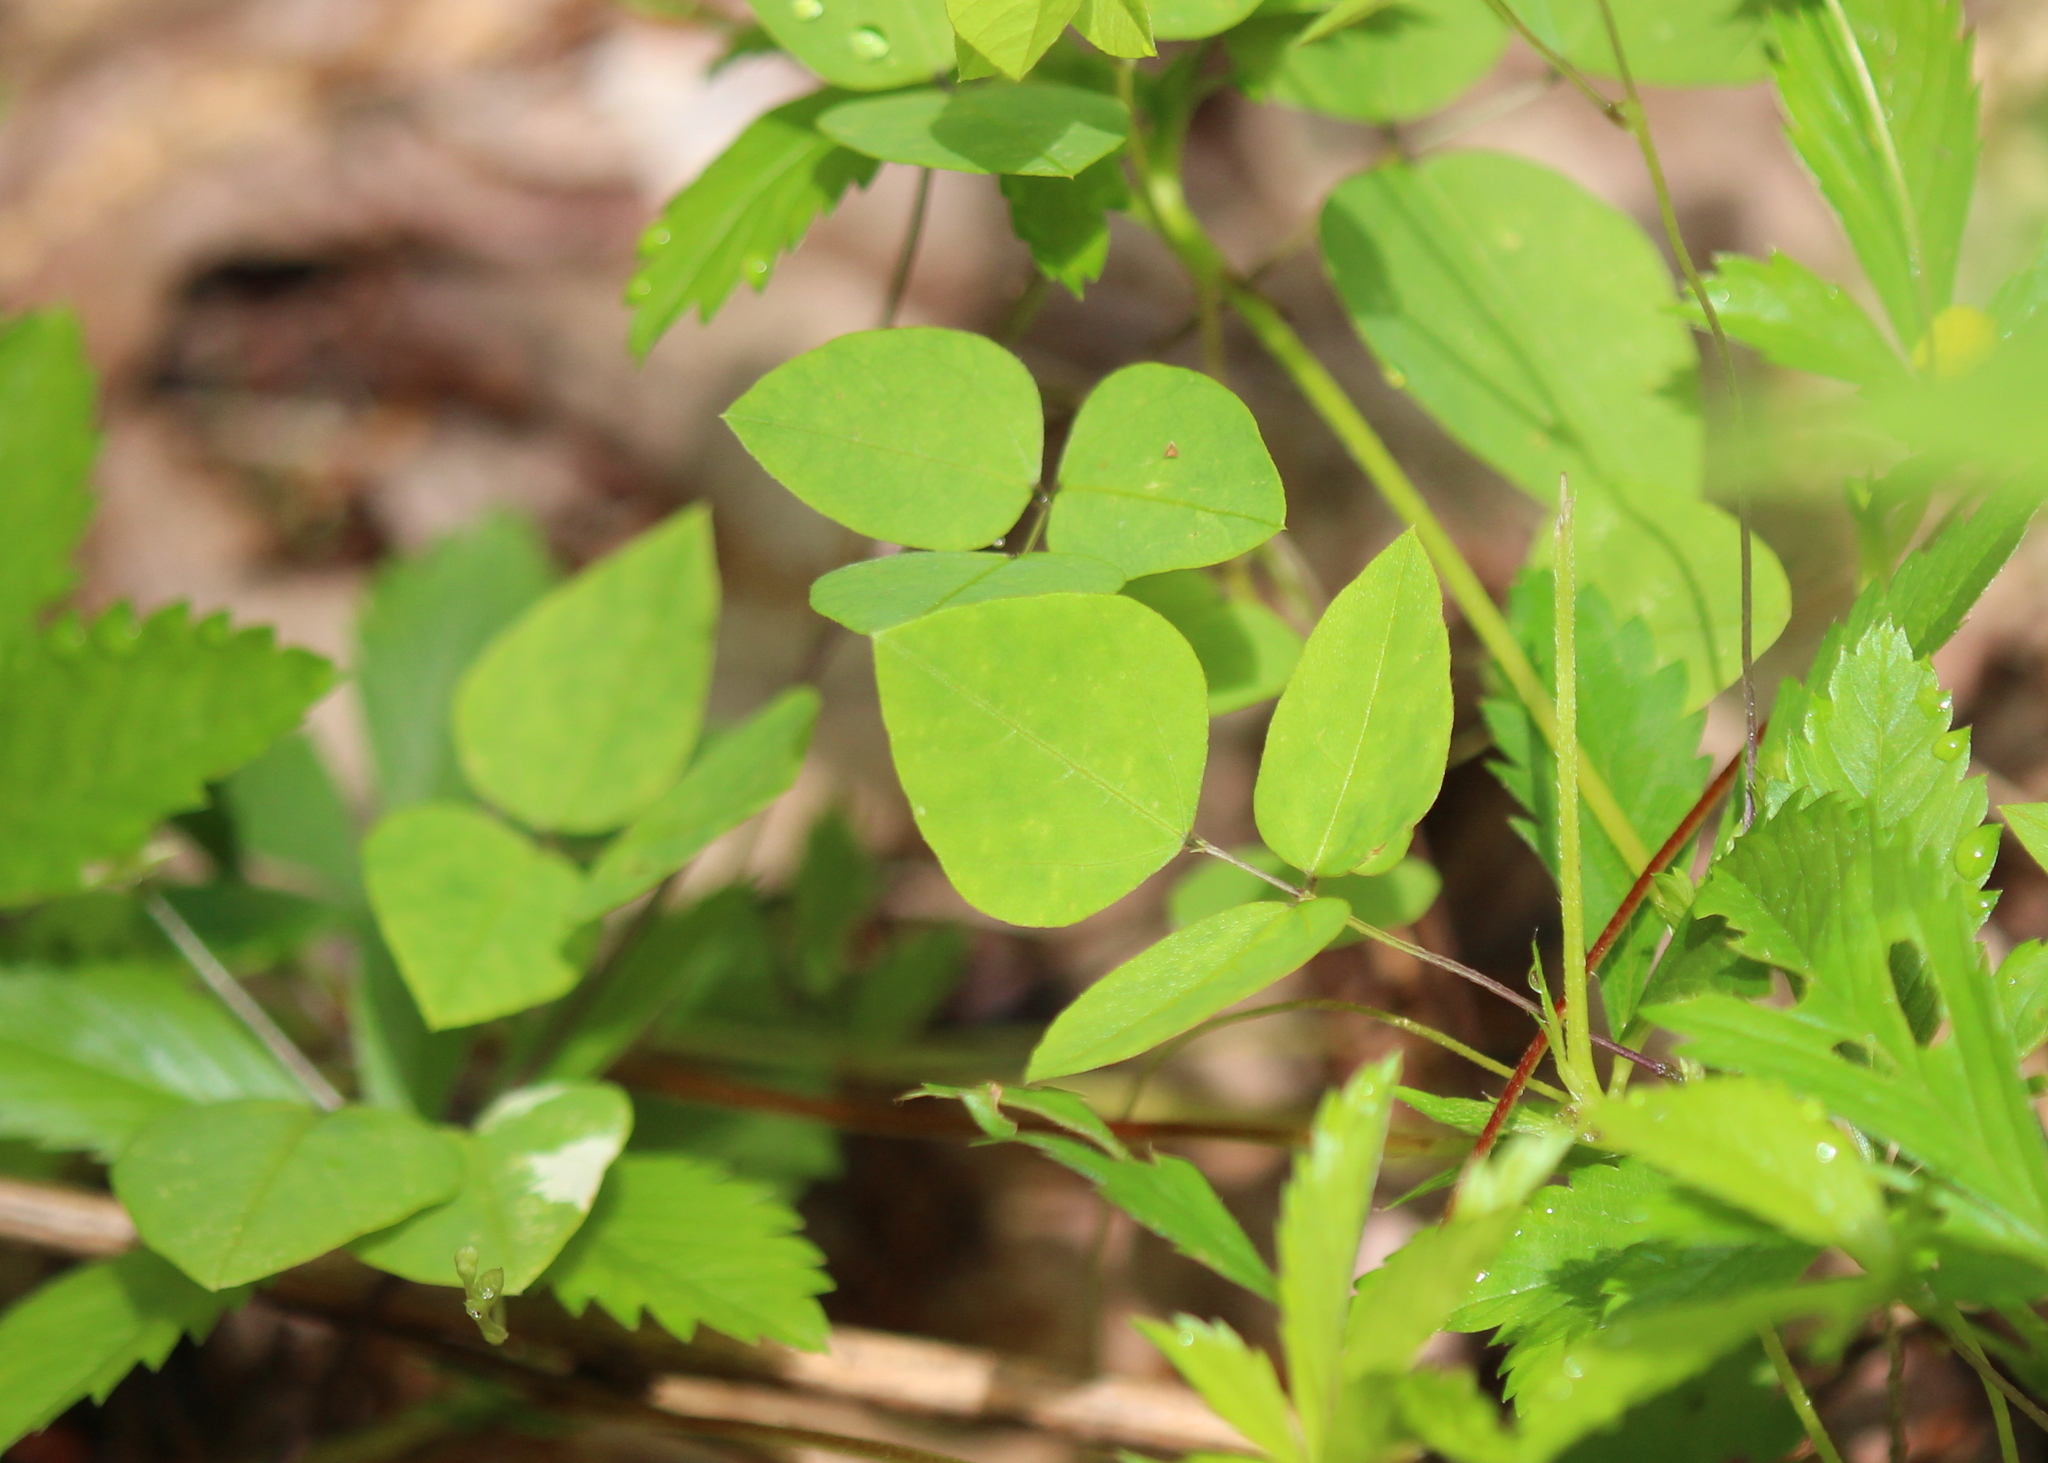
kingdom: Plantae
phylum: Tracheophyta
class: Magnoliopsida
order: Fabales
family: Fabaceae
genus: Amphicarpaea
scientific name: Amphicarpaea bracteata
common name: American hog peanut
